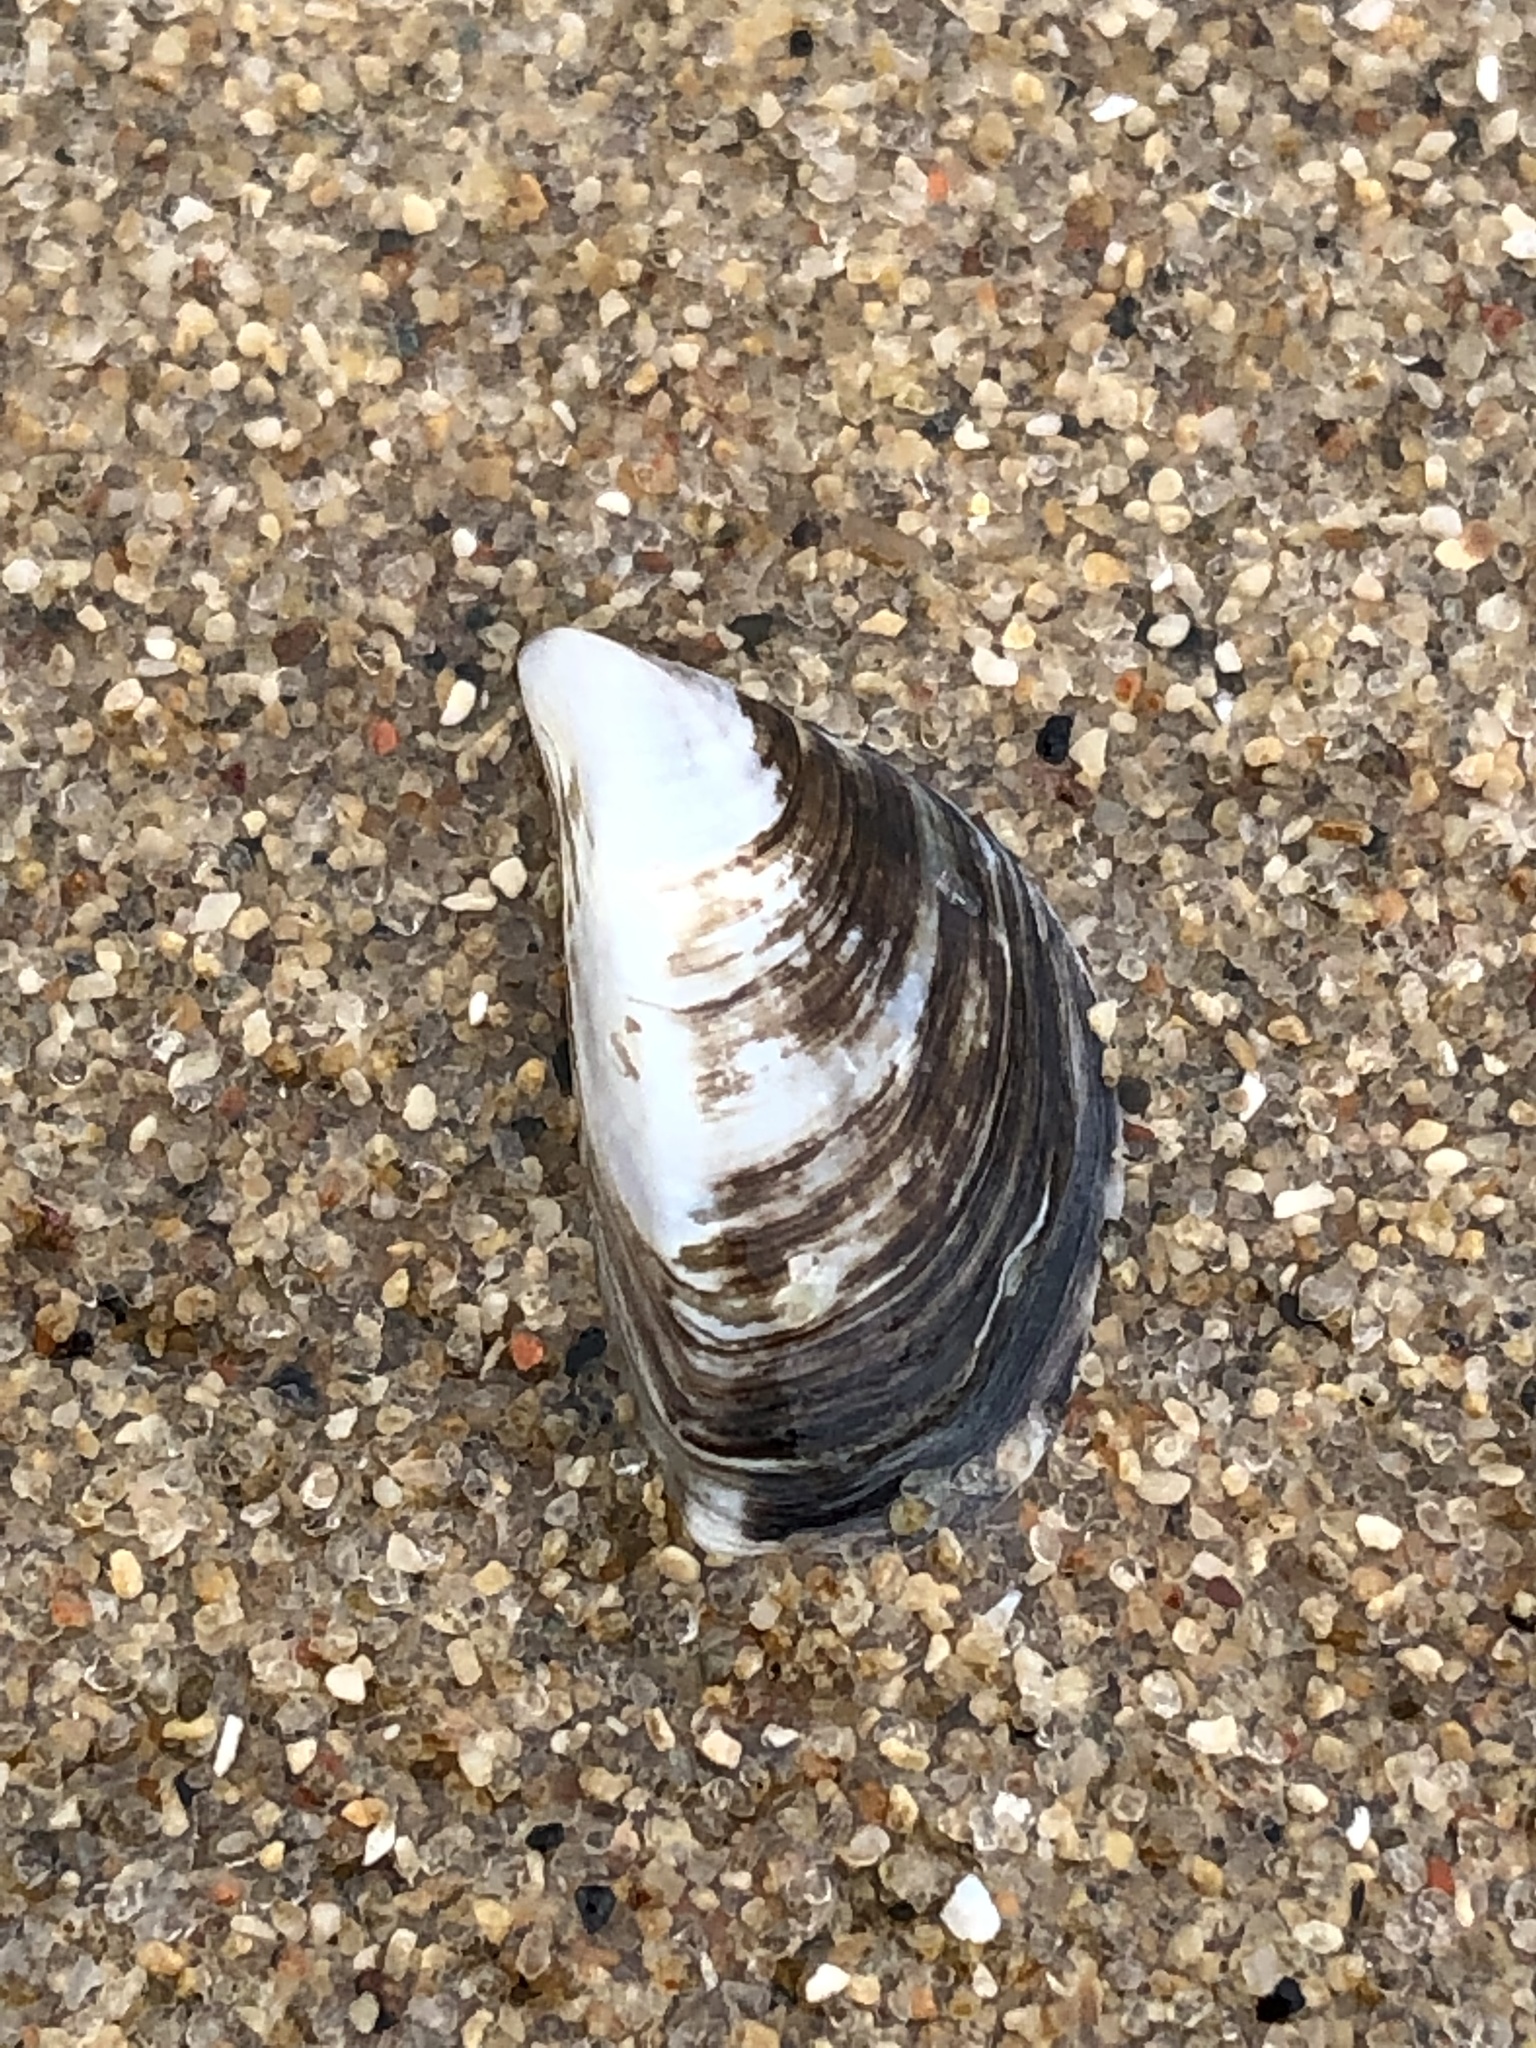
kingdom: Animalia
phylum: Mollusca
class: Bivalvia
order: Myida
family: Dreissenidae
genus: Dreissena
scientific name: Dreissena polymorpha
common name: Zebra mussel
